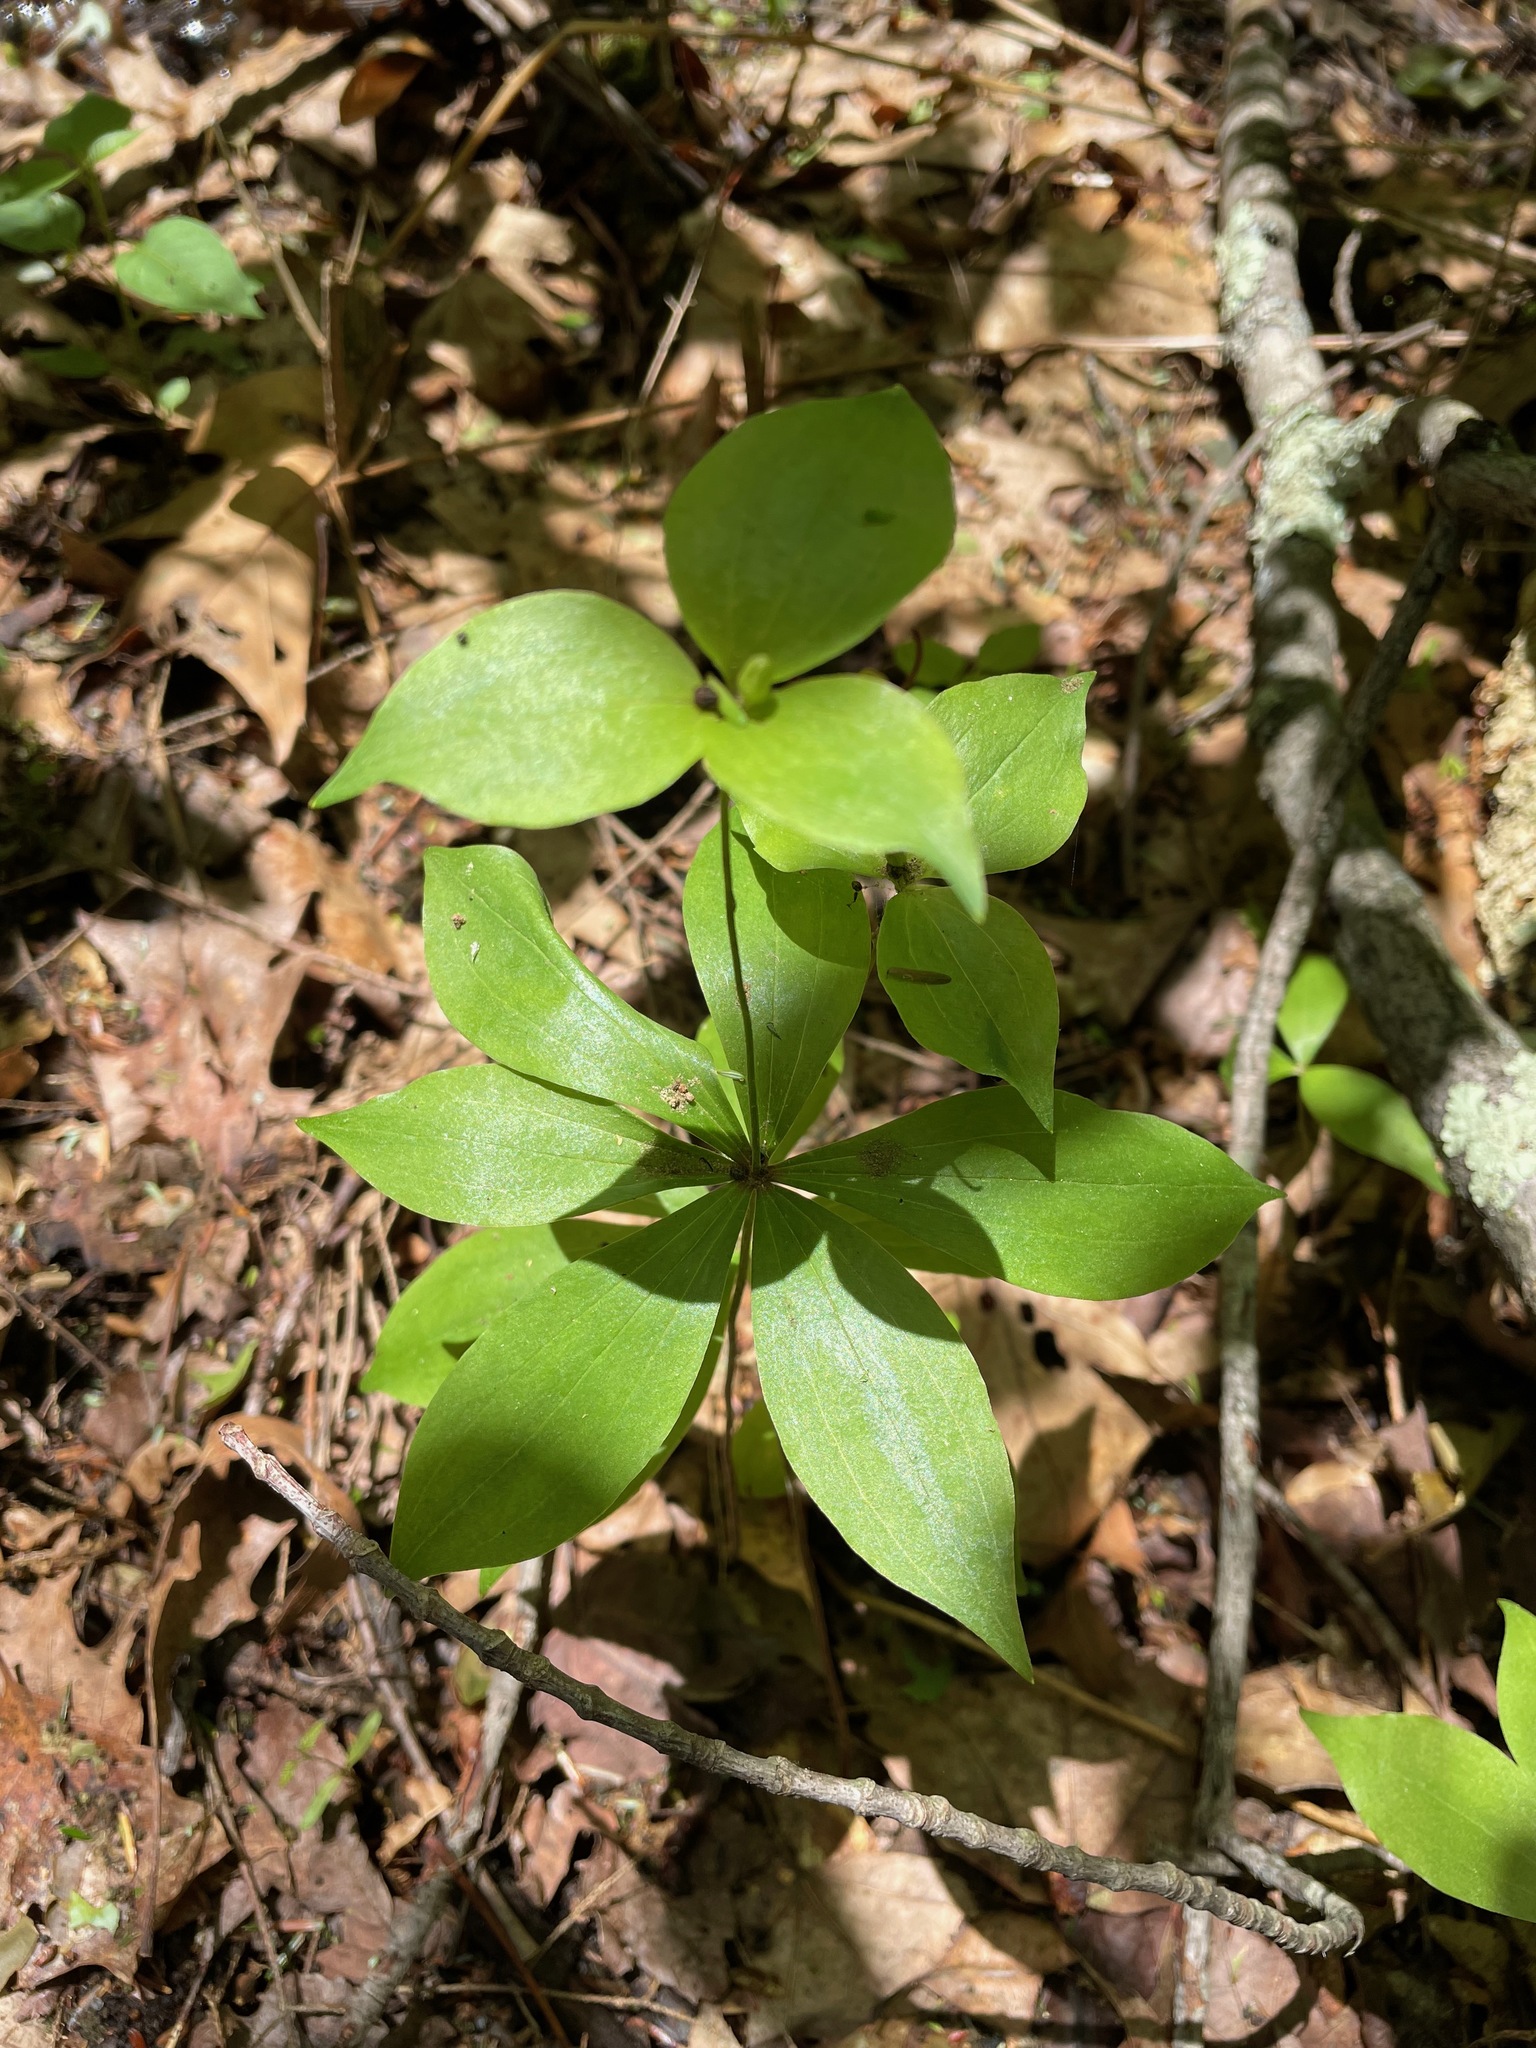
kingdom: Plantae
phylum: Tracheophyta
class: Liliopsida
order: Liliales
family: Liliaceae
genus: Medeola
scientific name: Medeola virginiana
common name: Indian cucumber-root
